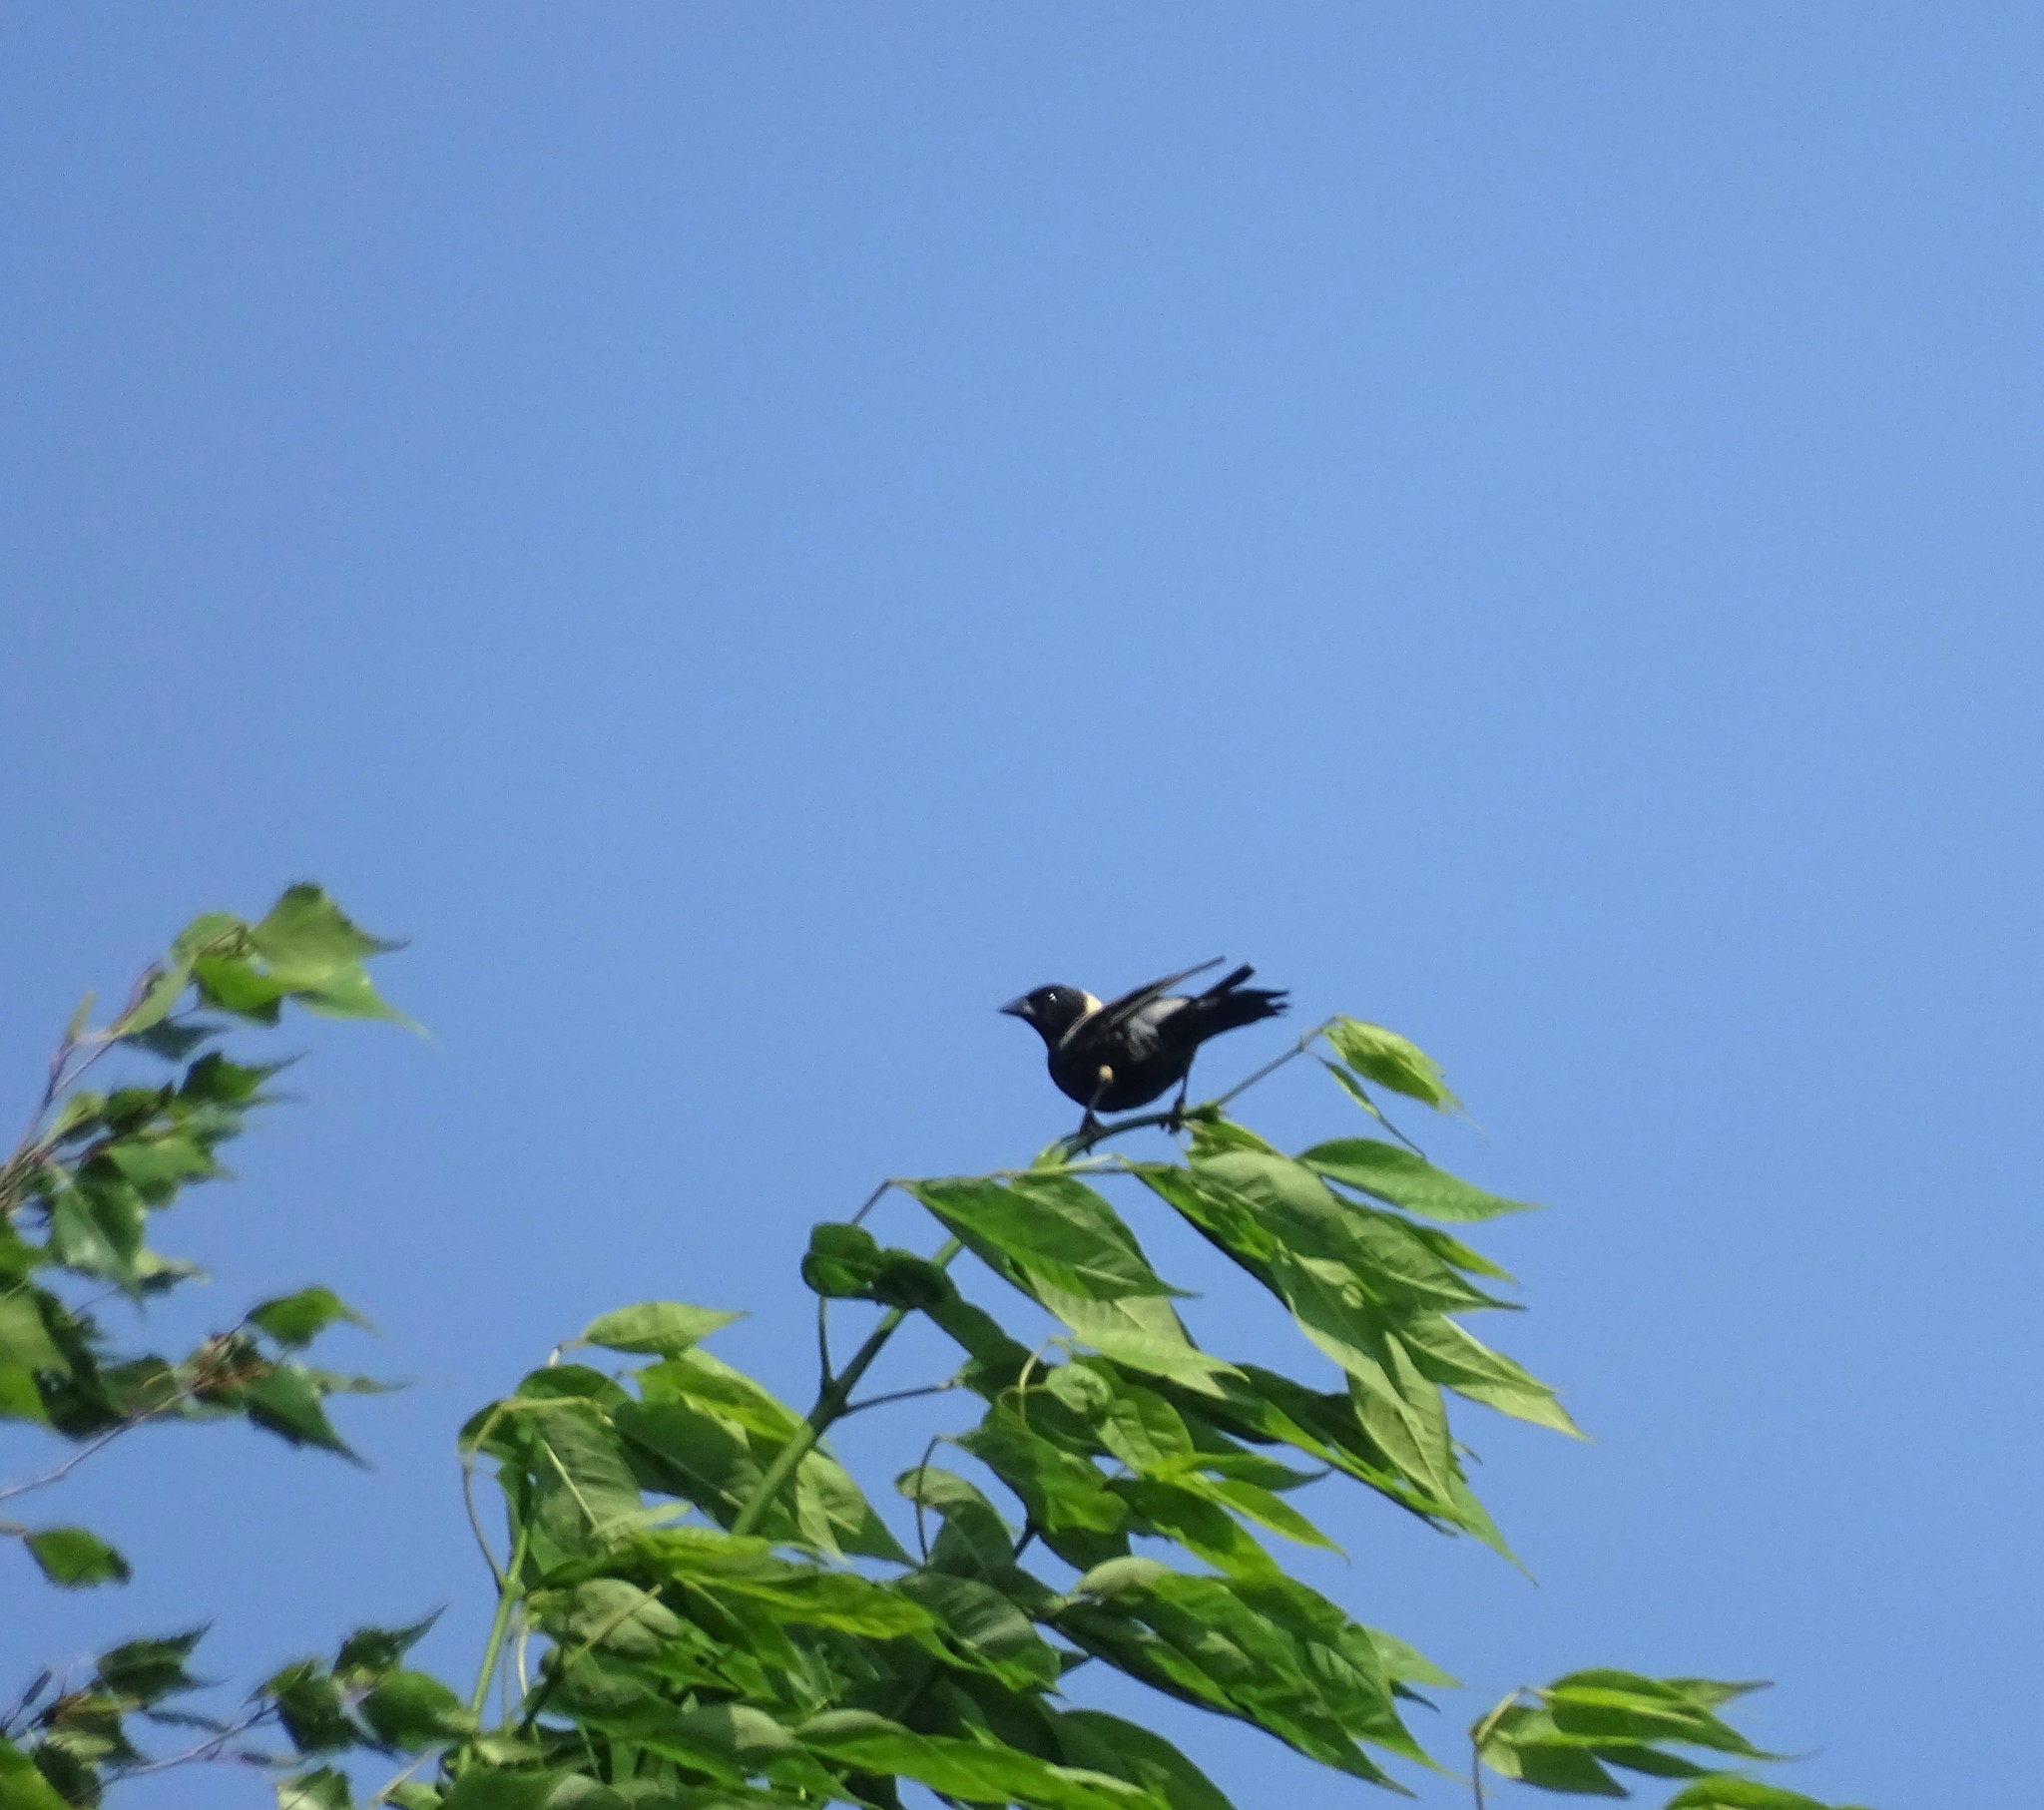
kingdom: Animalia
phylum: Chordata
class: Aves
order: Passeriformes
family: Icteridae
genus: Dolichonyx
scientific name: Dolichonyx oryzivorus
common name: Bobolink
